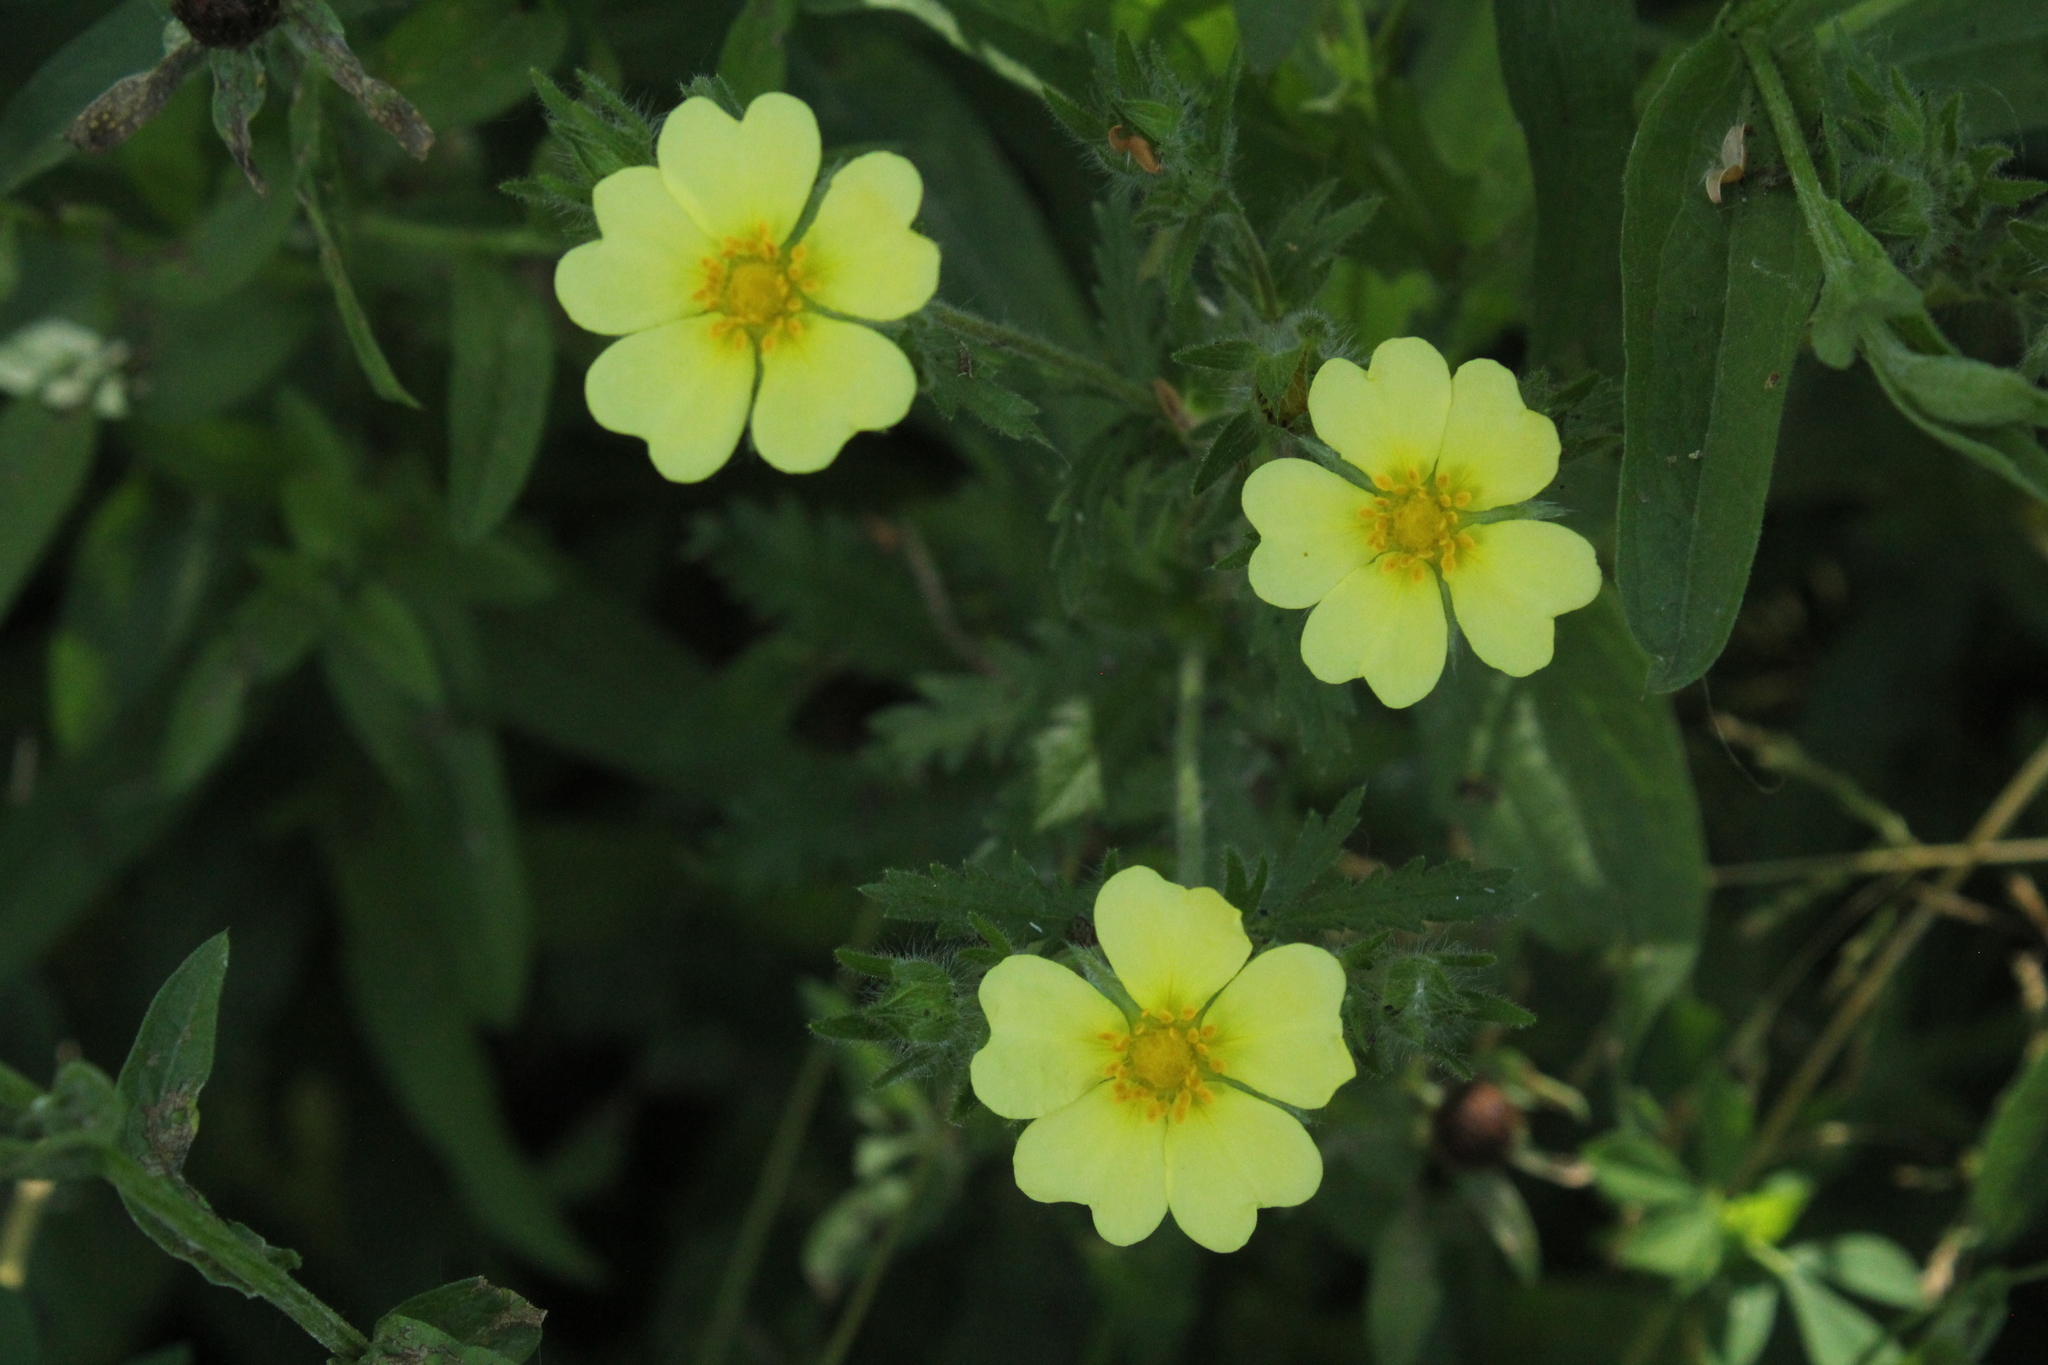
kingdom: Plantae
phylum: Tracheophyta
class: Magnoliopsida
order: Rosales
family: Rosaceae
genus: Potentilla
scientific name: Potentilla recta
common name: Sulphur cinquefoil
